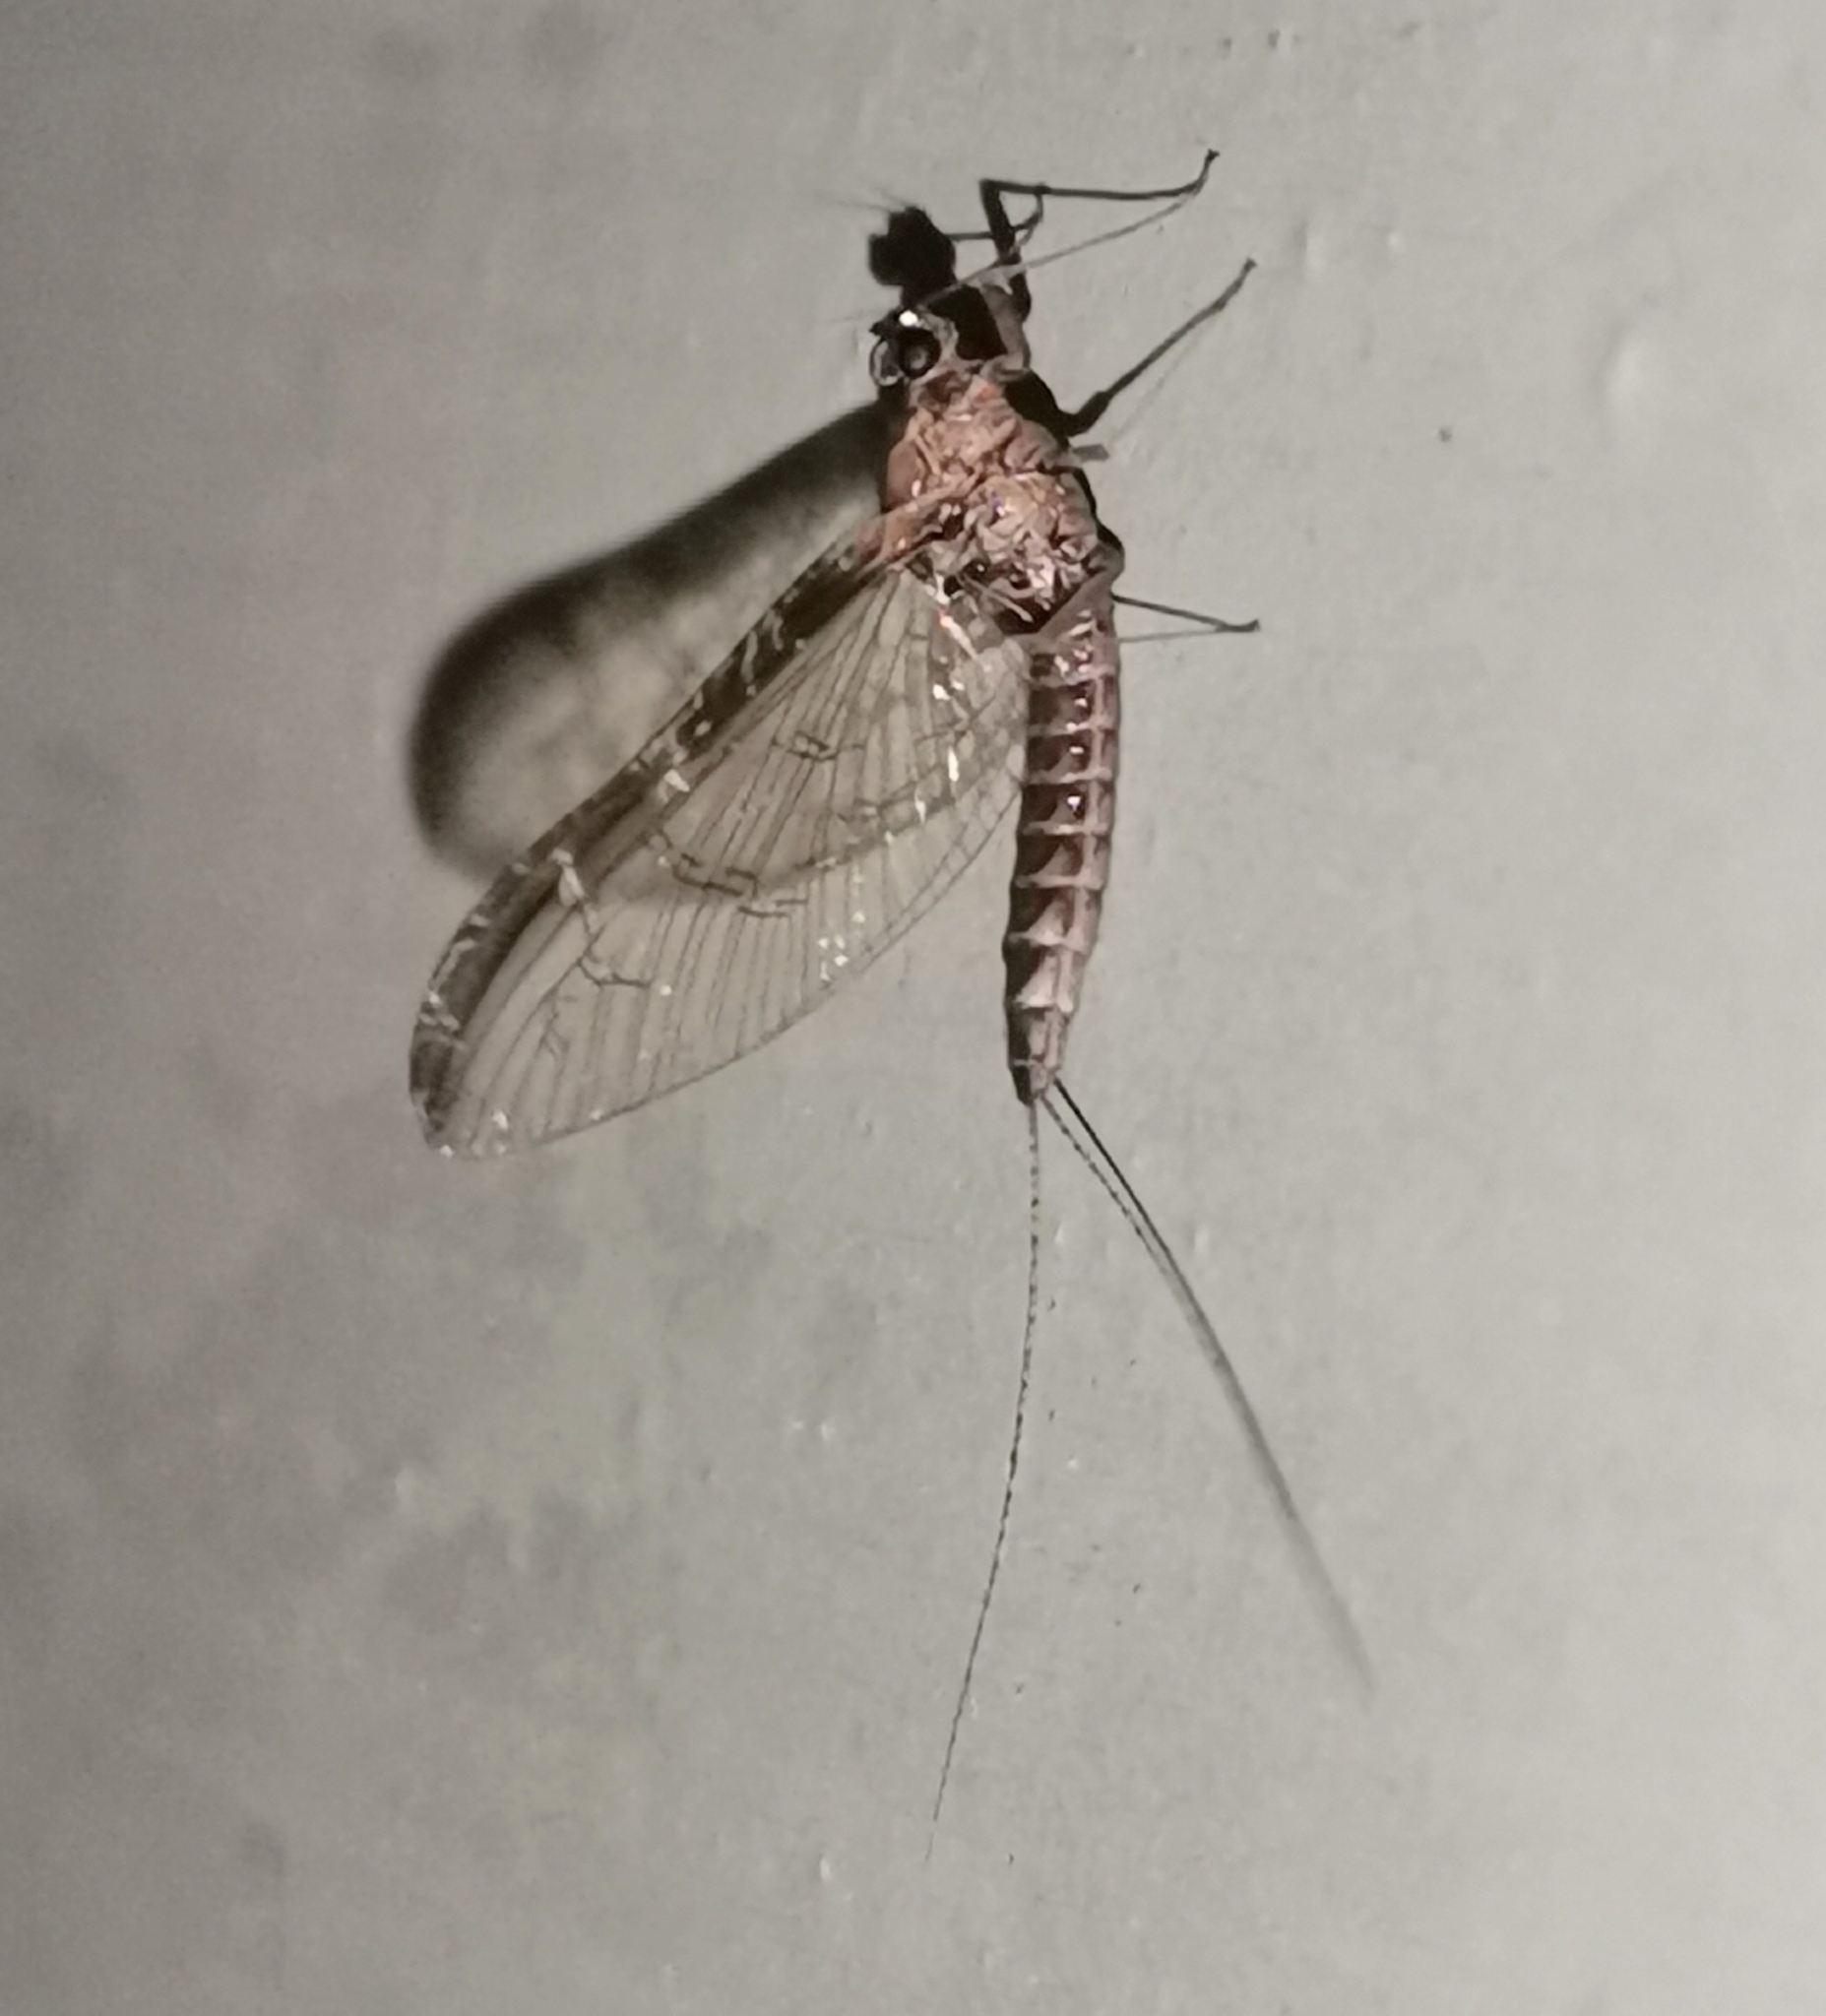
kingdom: Animalia
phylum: Arthropoda
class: Insecta
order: Ephemeroptera
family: Baetidae
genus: Cloeon
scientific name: Cloeon dipterum
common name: Pond olive
